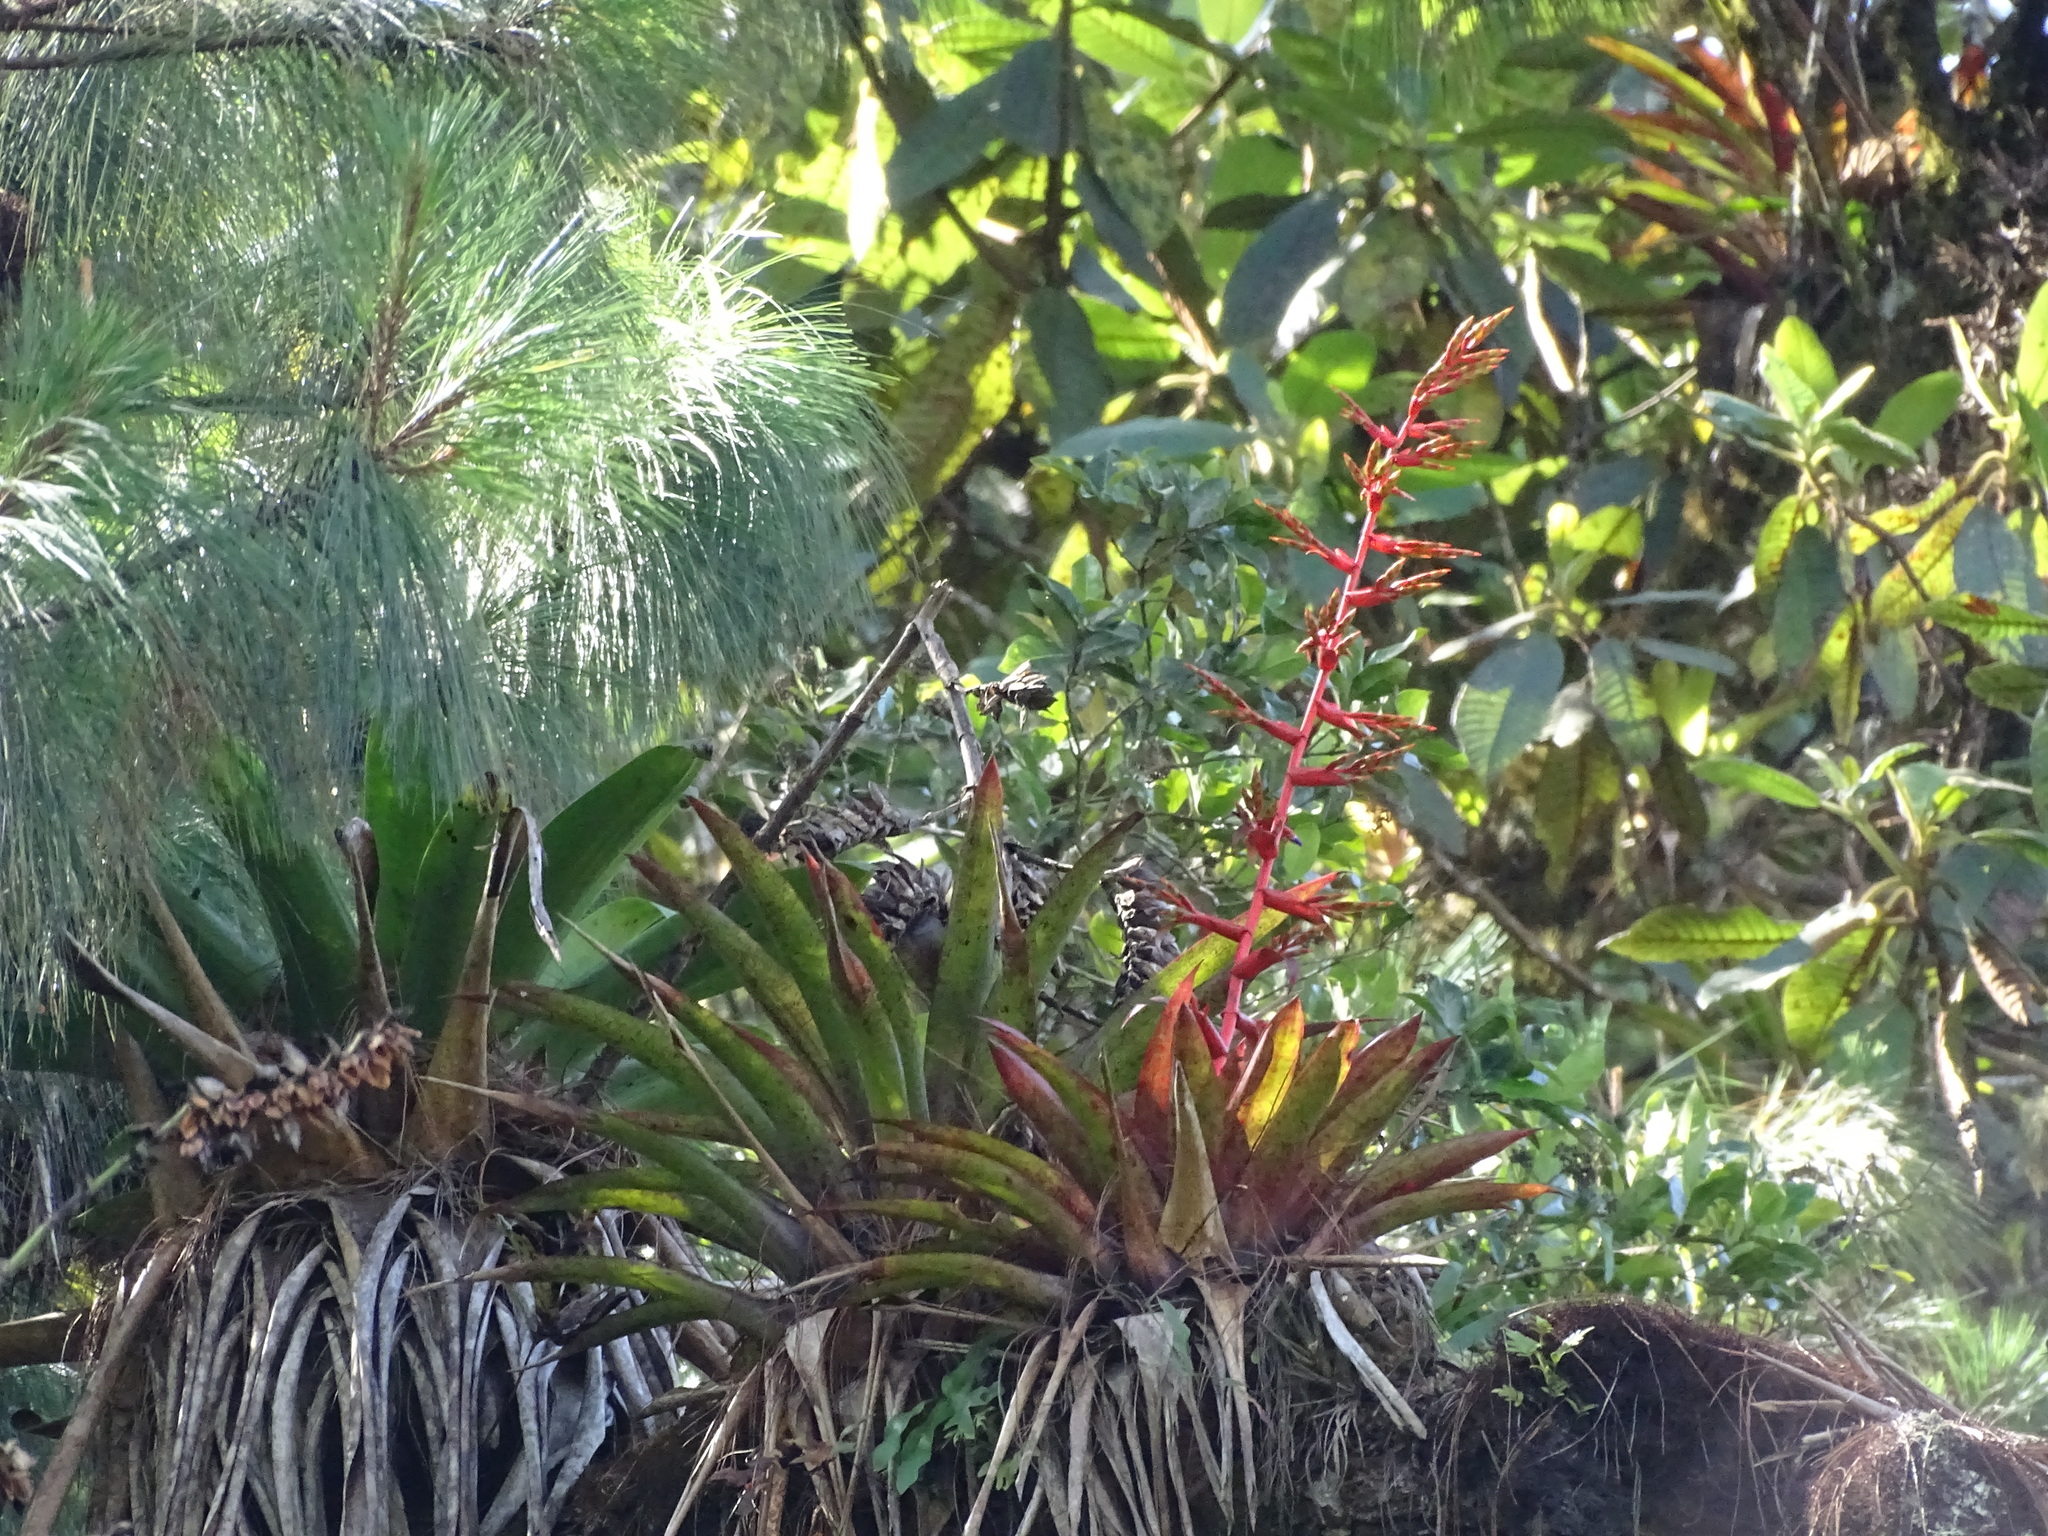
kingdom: Plantae
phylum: Tracheophyta
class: Liliopsida
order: Poales
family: Bromeliaceae
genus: Tillandsia
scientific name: Tillandsia guatemalensis
